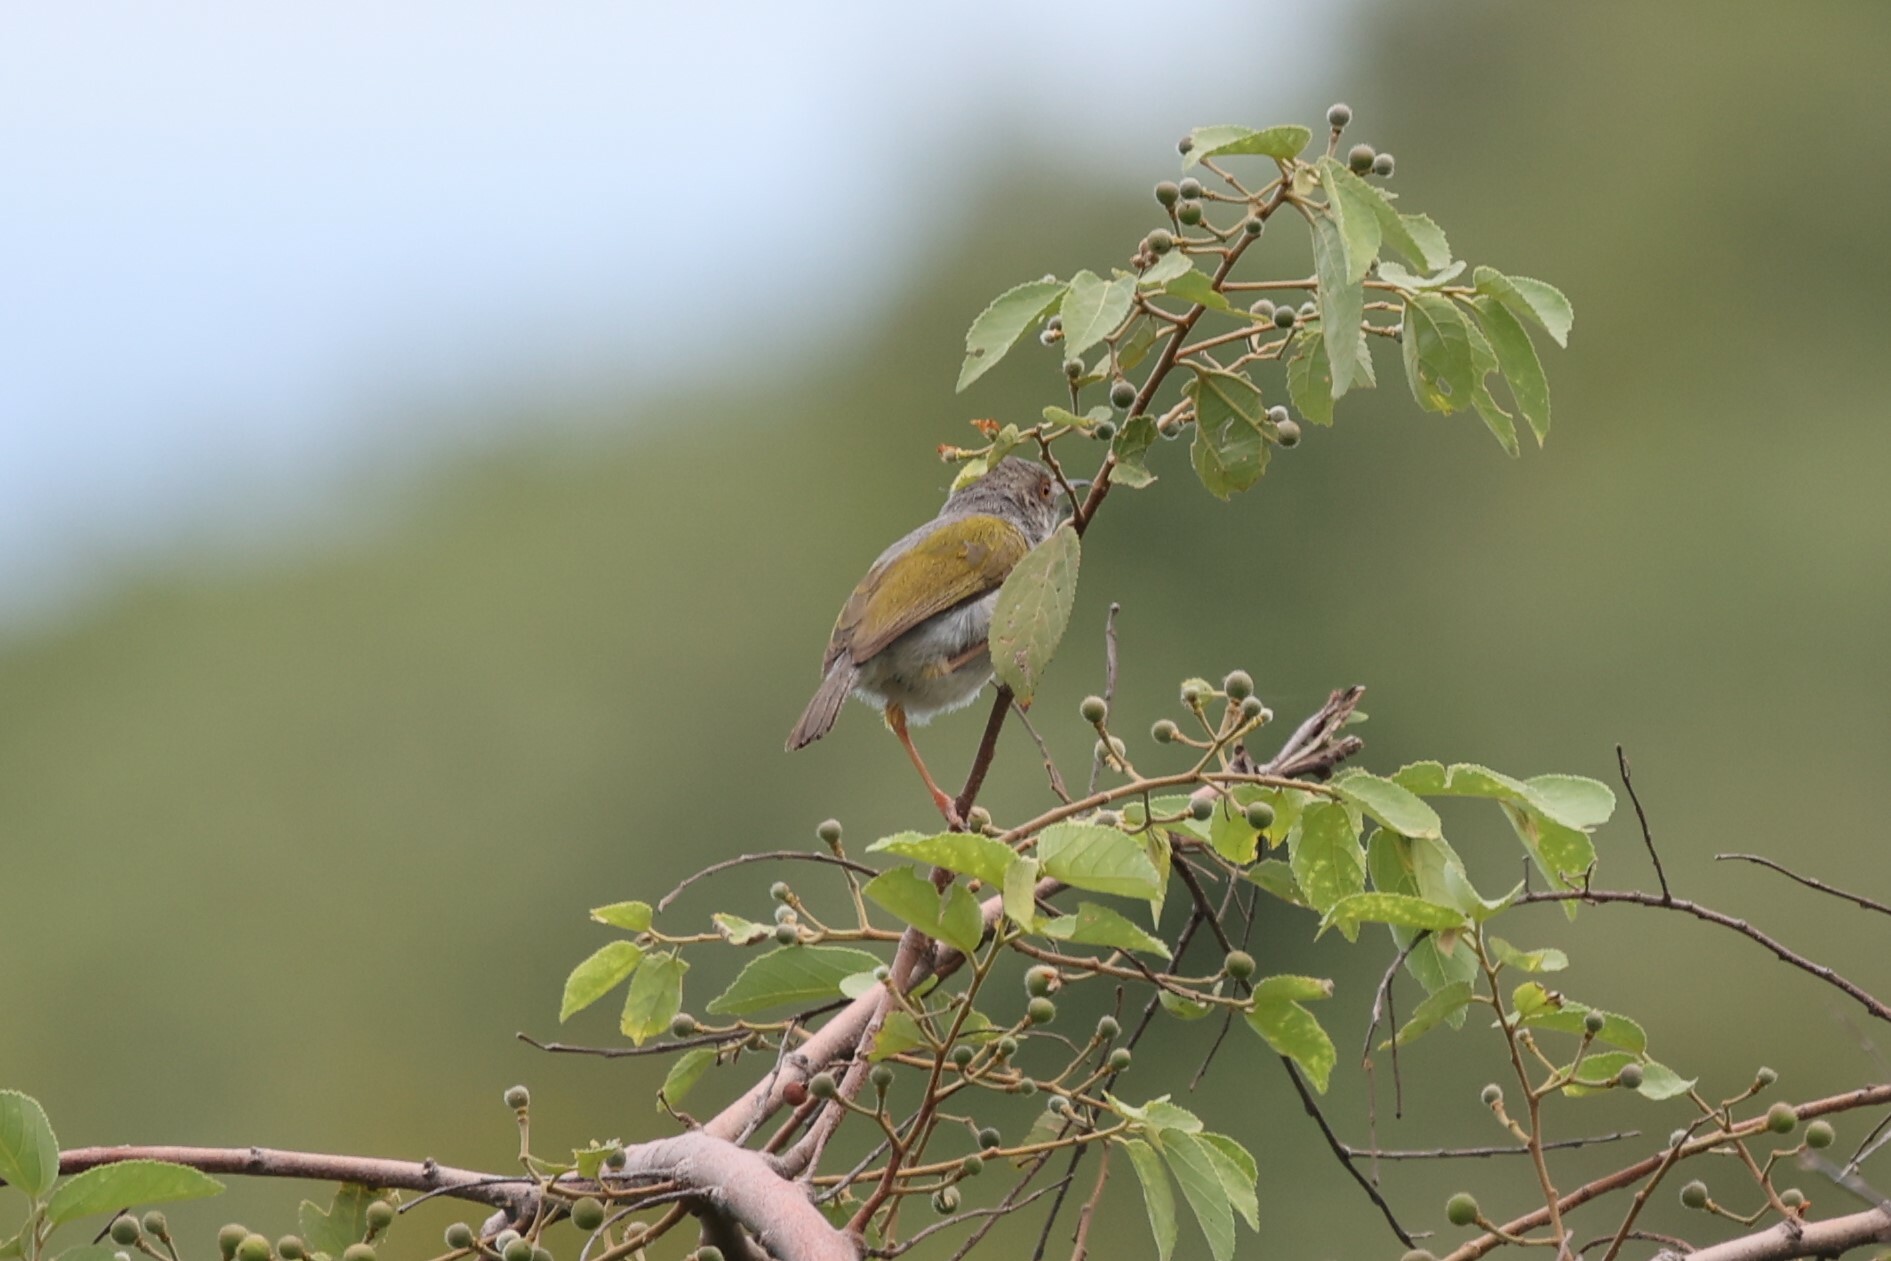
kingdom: Animalia
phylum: Chordata
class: Aves
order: Passeriformes
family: Cisticolidae
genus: Camaroptera
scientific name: Camaroptera brachyura
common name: Green-backed camaroptera
